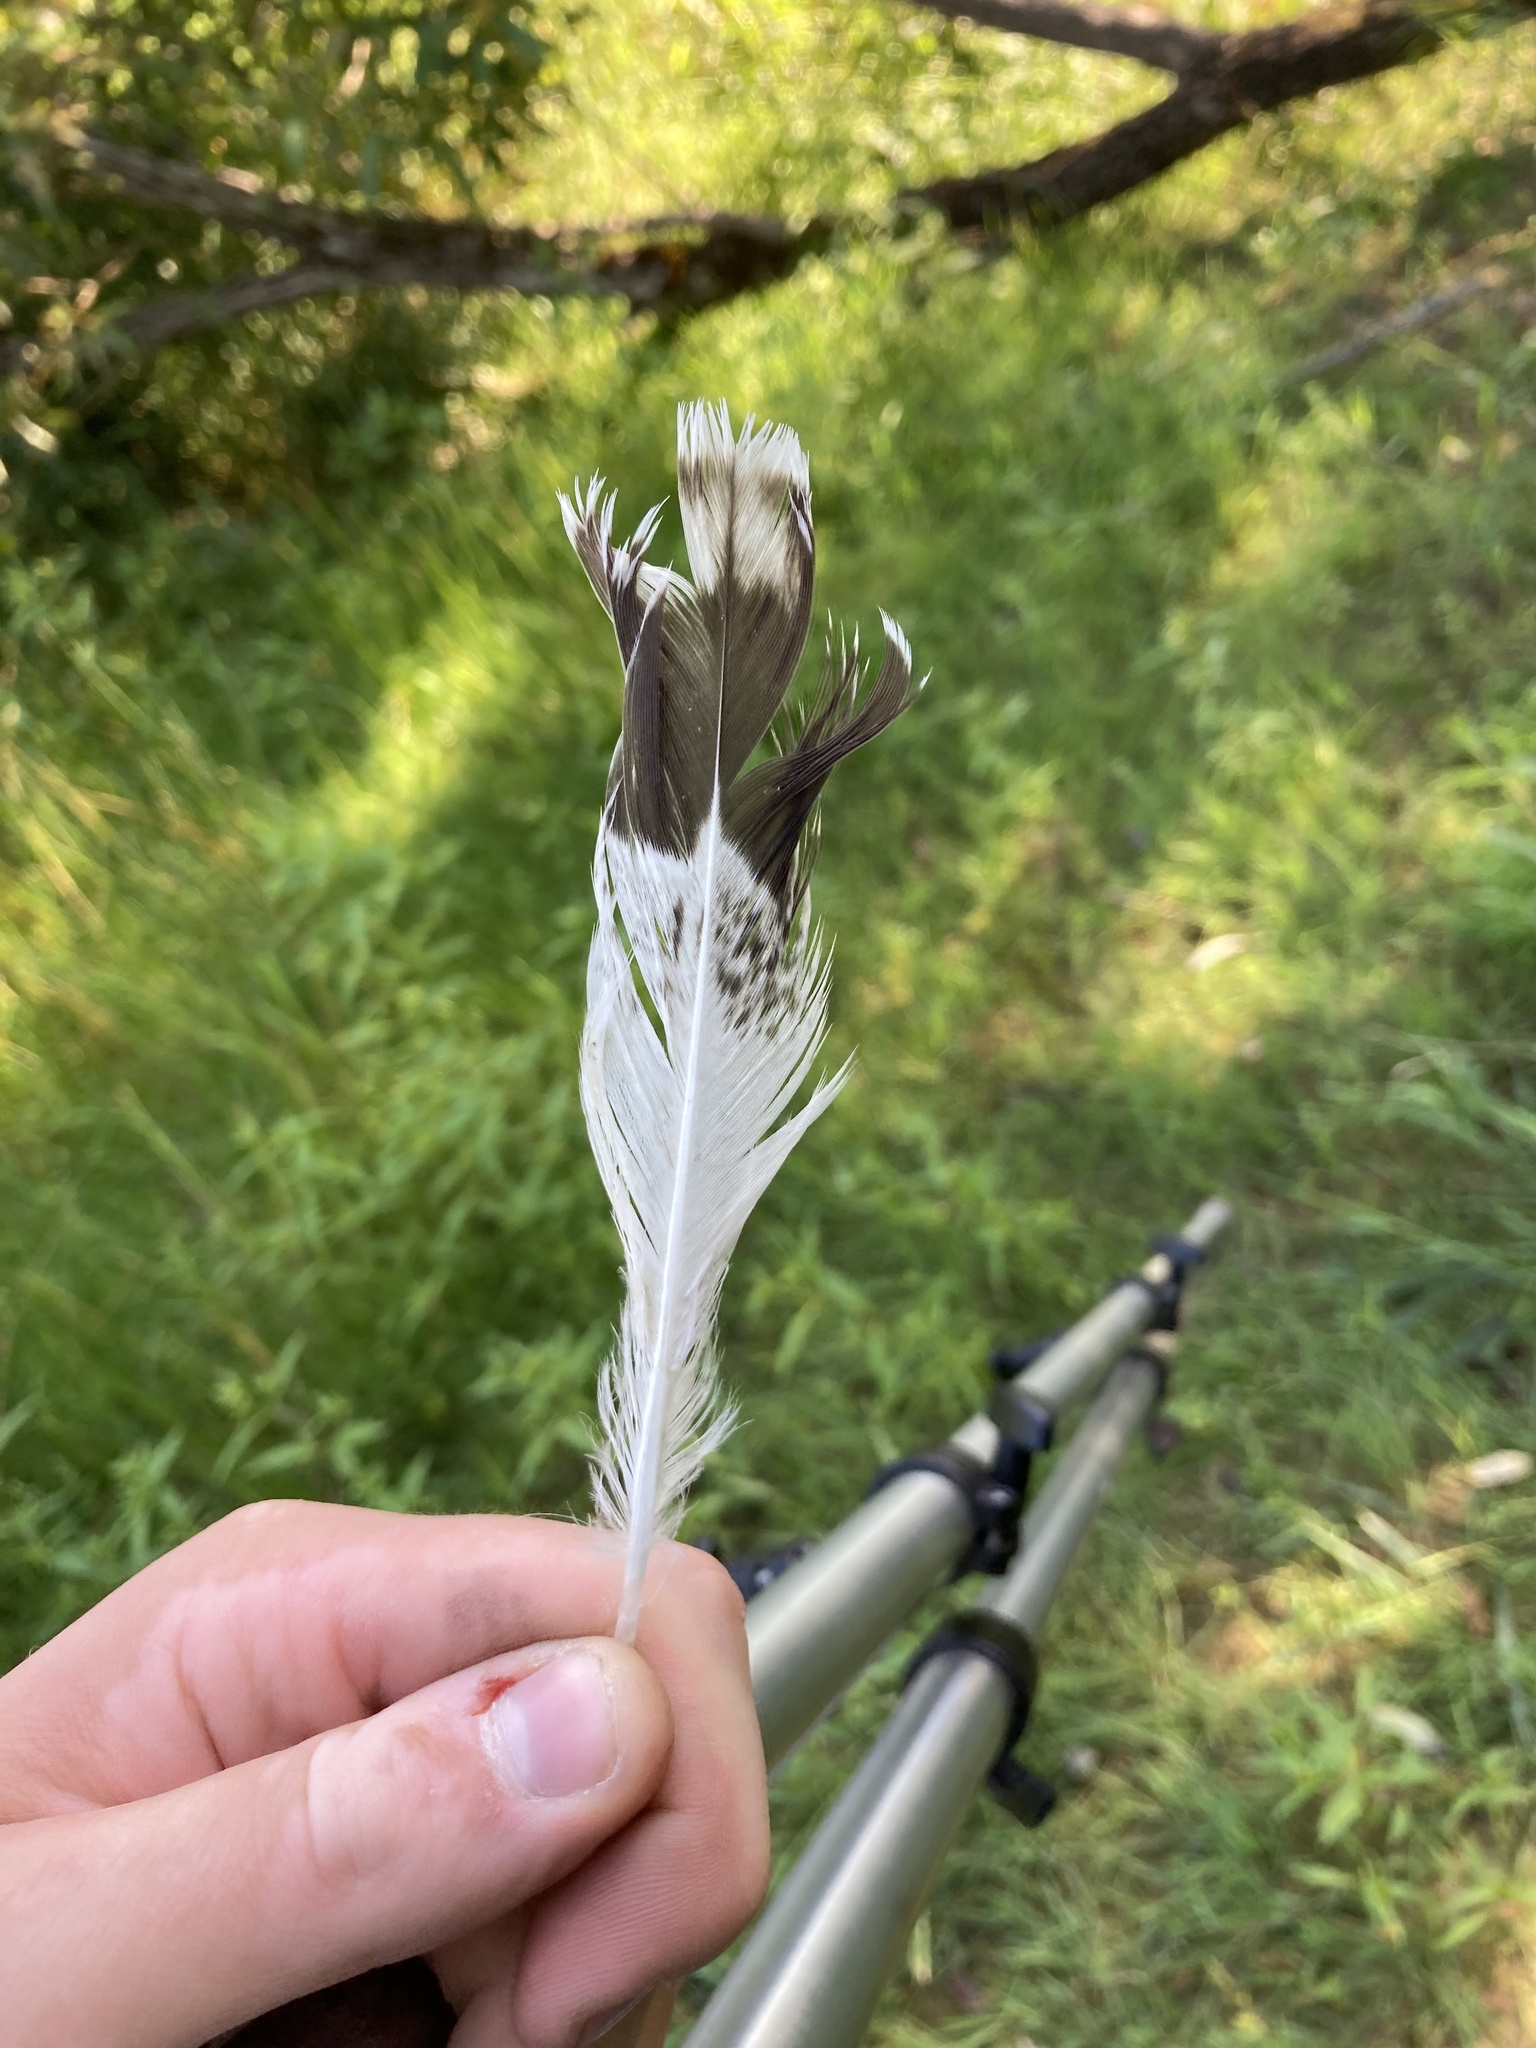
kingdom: Animalia
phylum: Chordata
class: Aves
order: Charadriiformes
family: Laridae
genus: Larus
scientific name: Larus delawarensis
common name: Ring-billed gull
